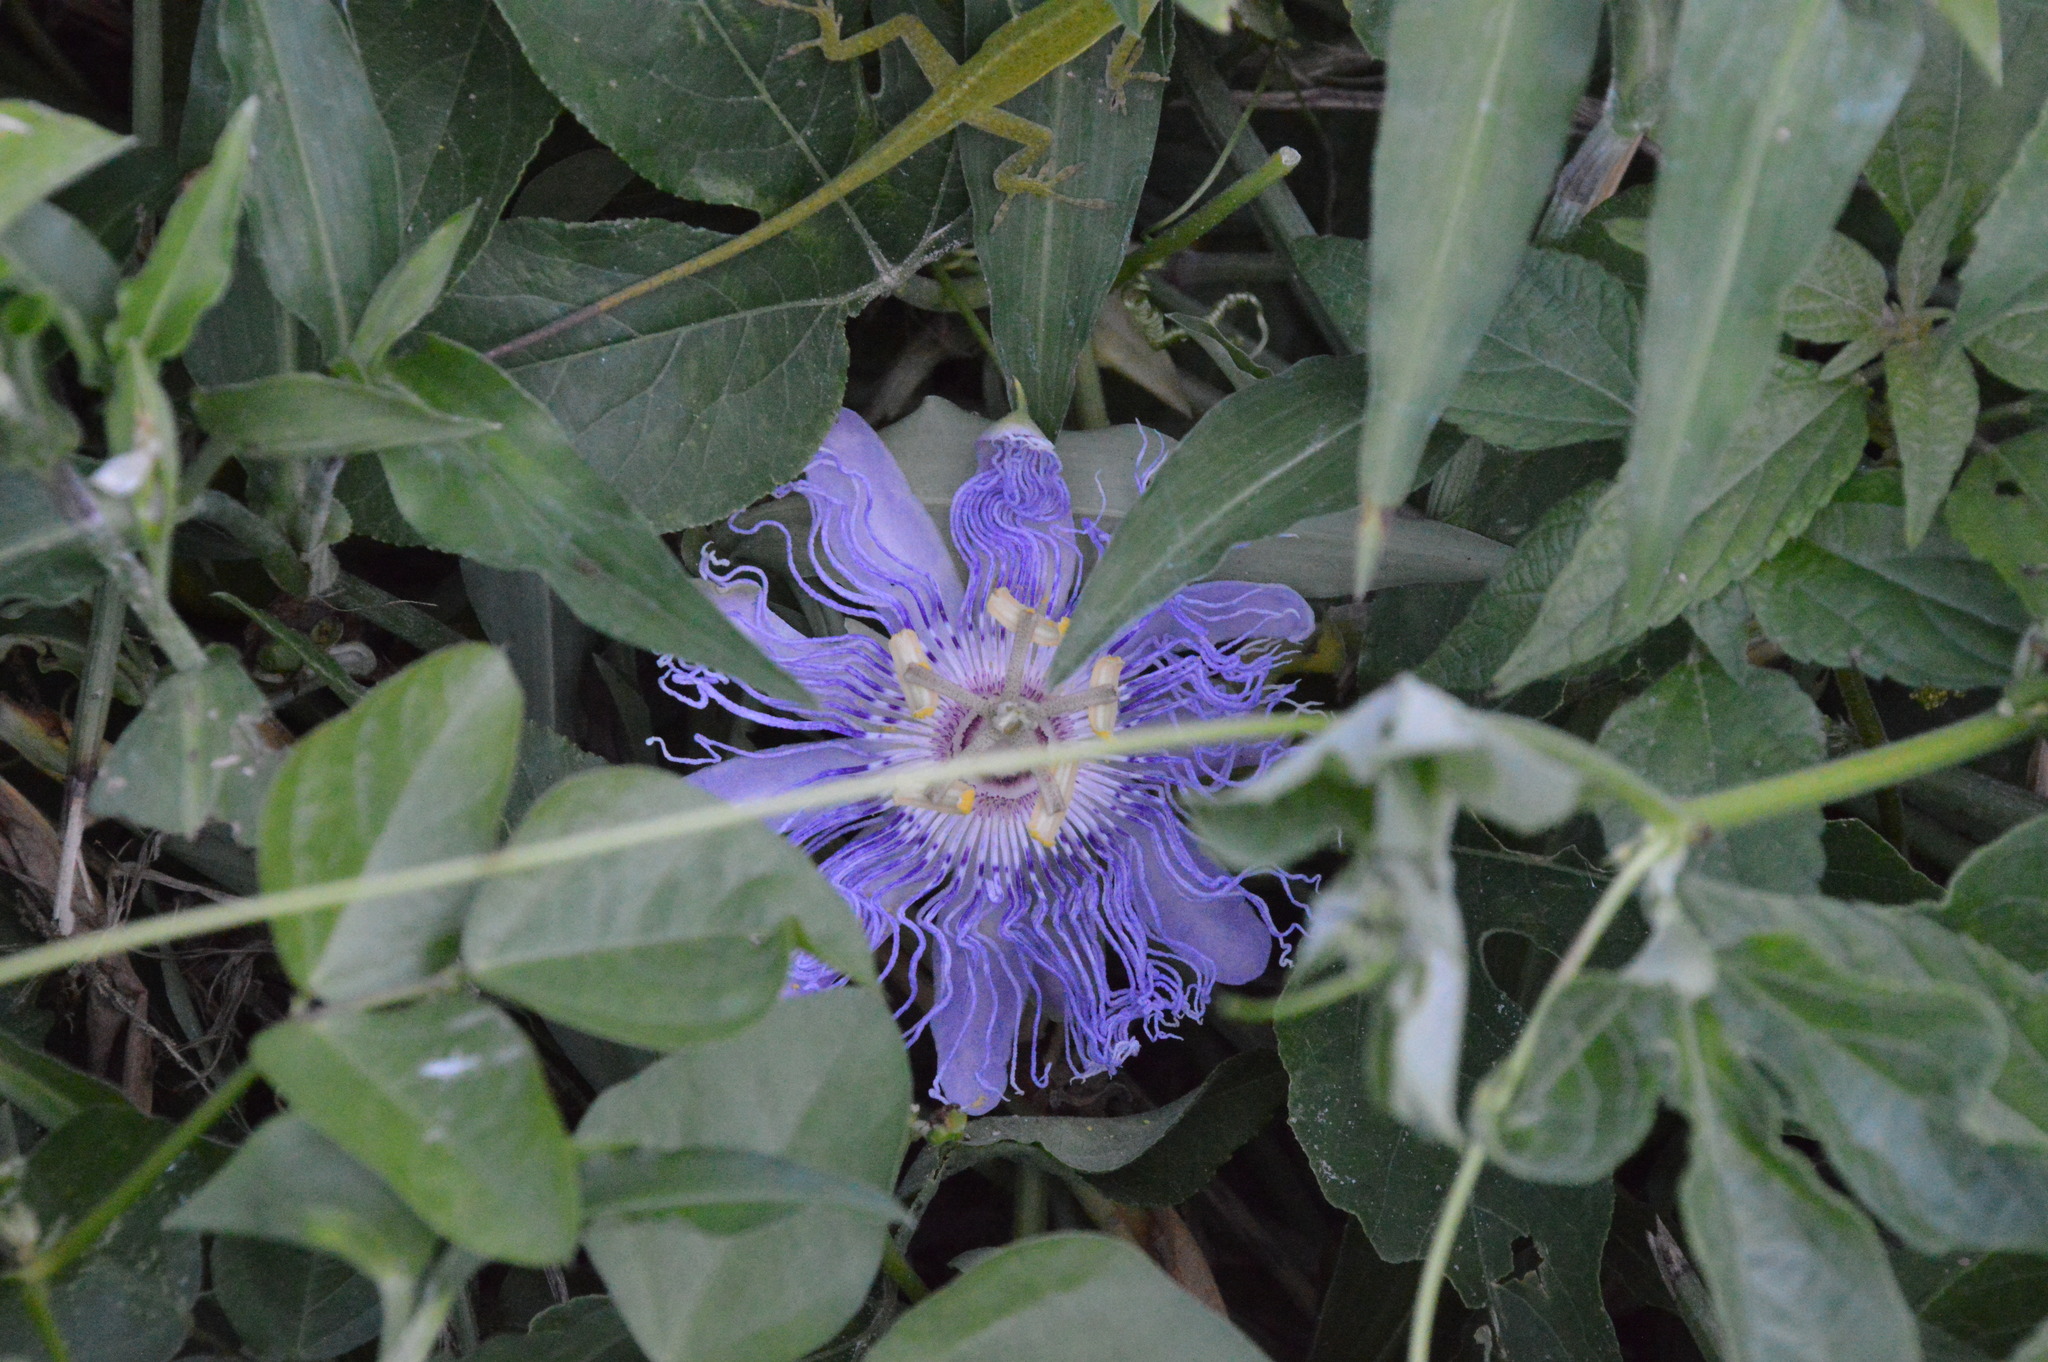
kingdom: Plantae
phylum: Tracheophyta
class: Magnoliopsida
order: Malpighiales
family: Passifloraceae
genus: Passiflora
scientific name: Passiflora incarnata
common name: Apricot-vine
